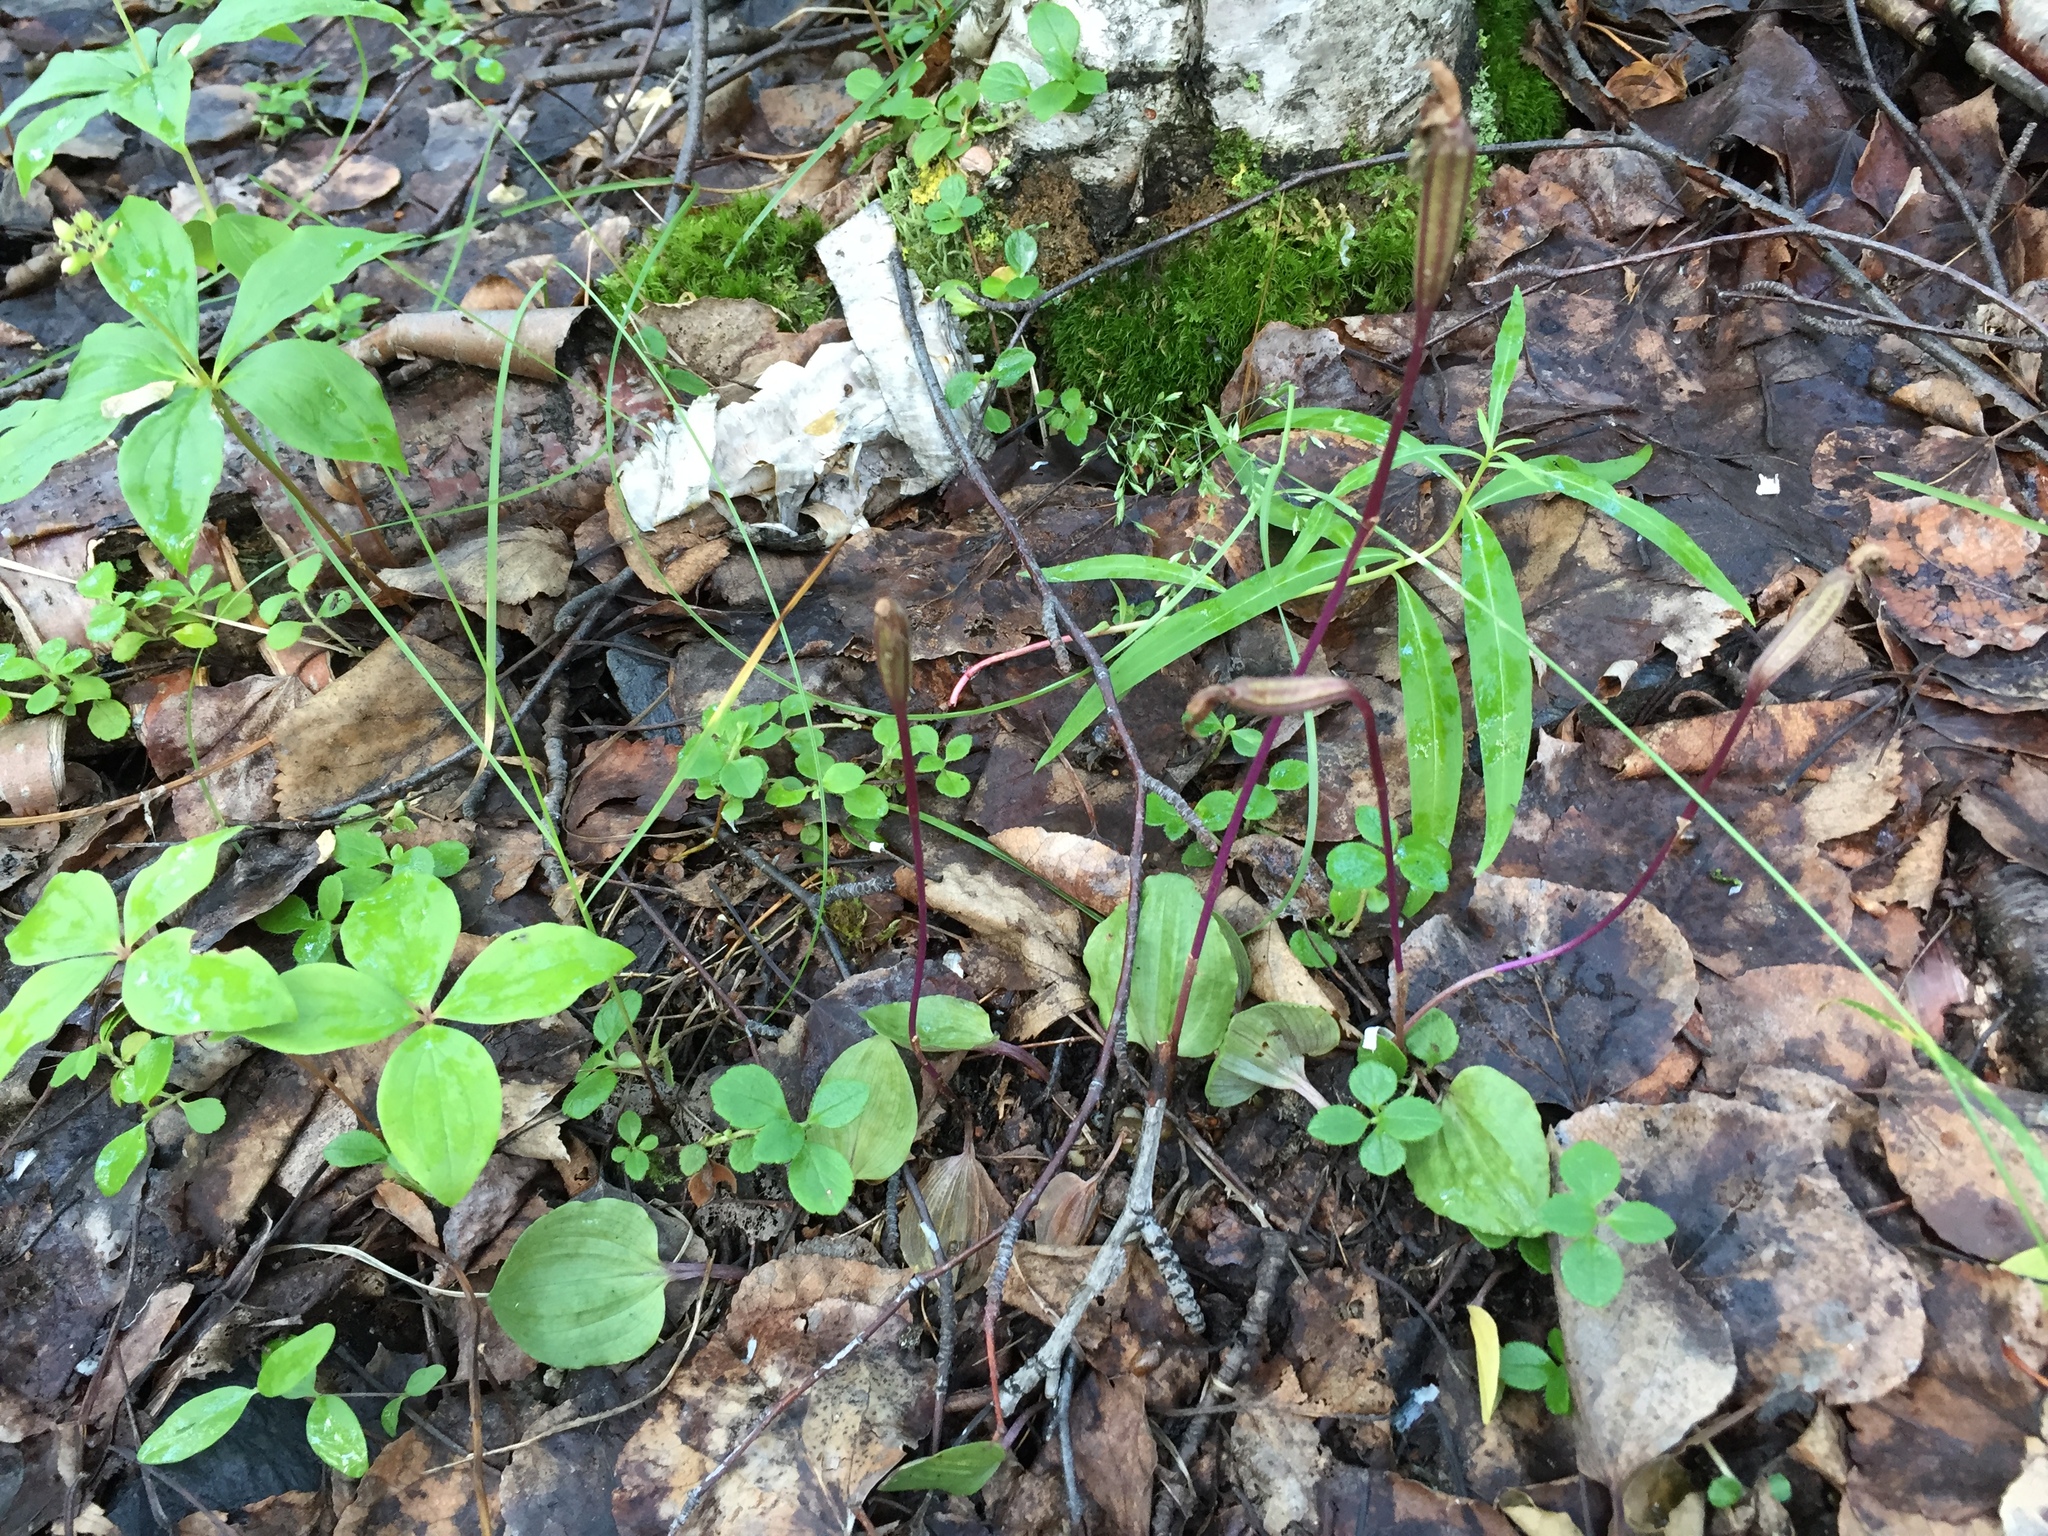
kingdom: Plantae
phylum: Tracheophyta
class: Liliopsida
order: Asparagales
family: Orchidaceae
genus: Calypso
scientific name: Calypso bulbosa
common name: Calypso
